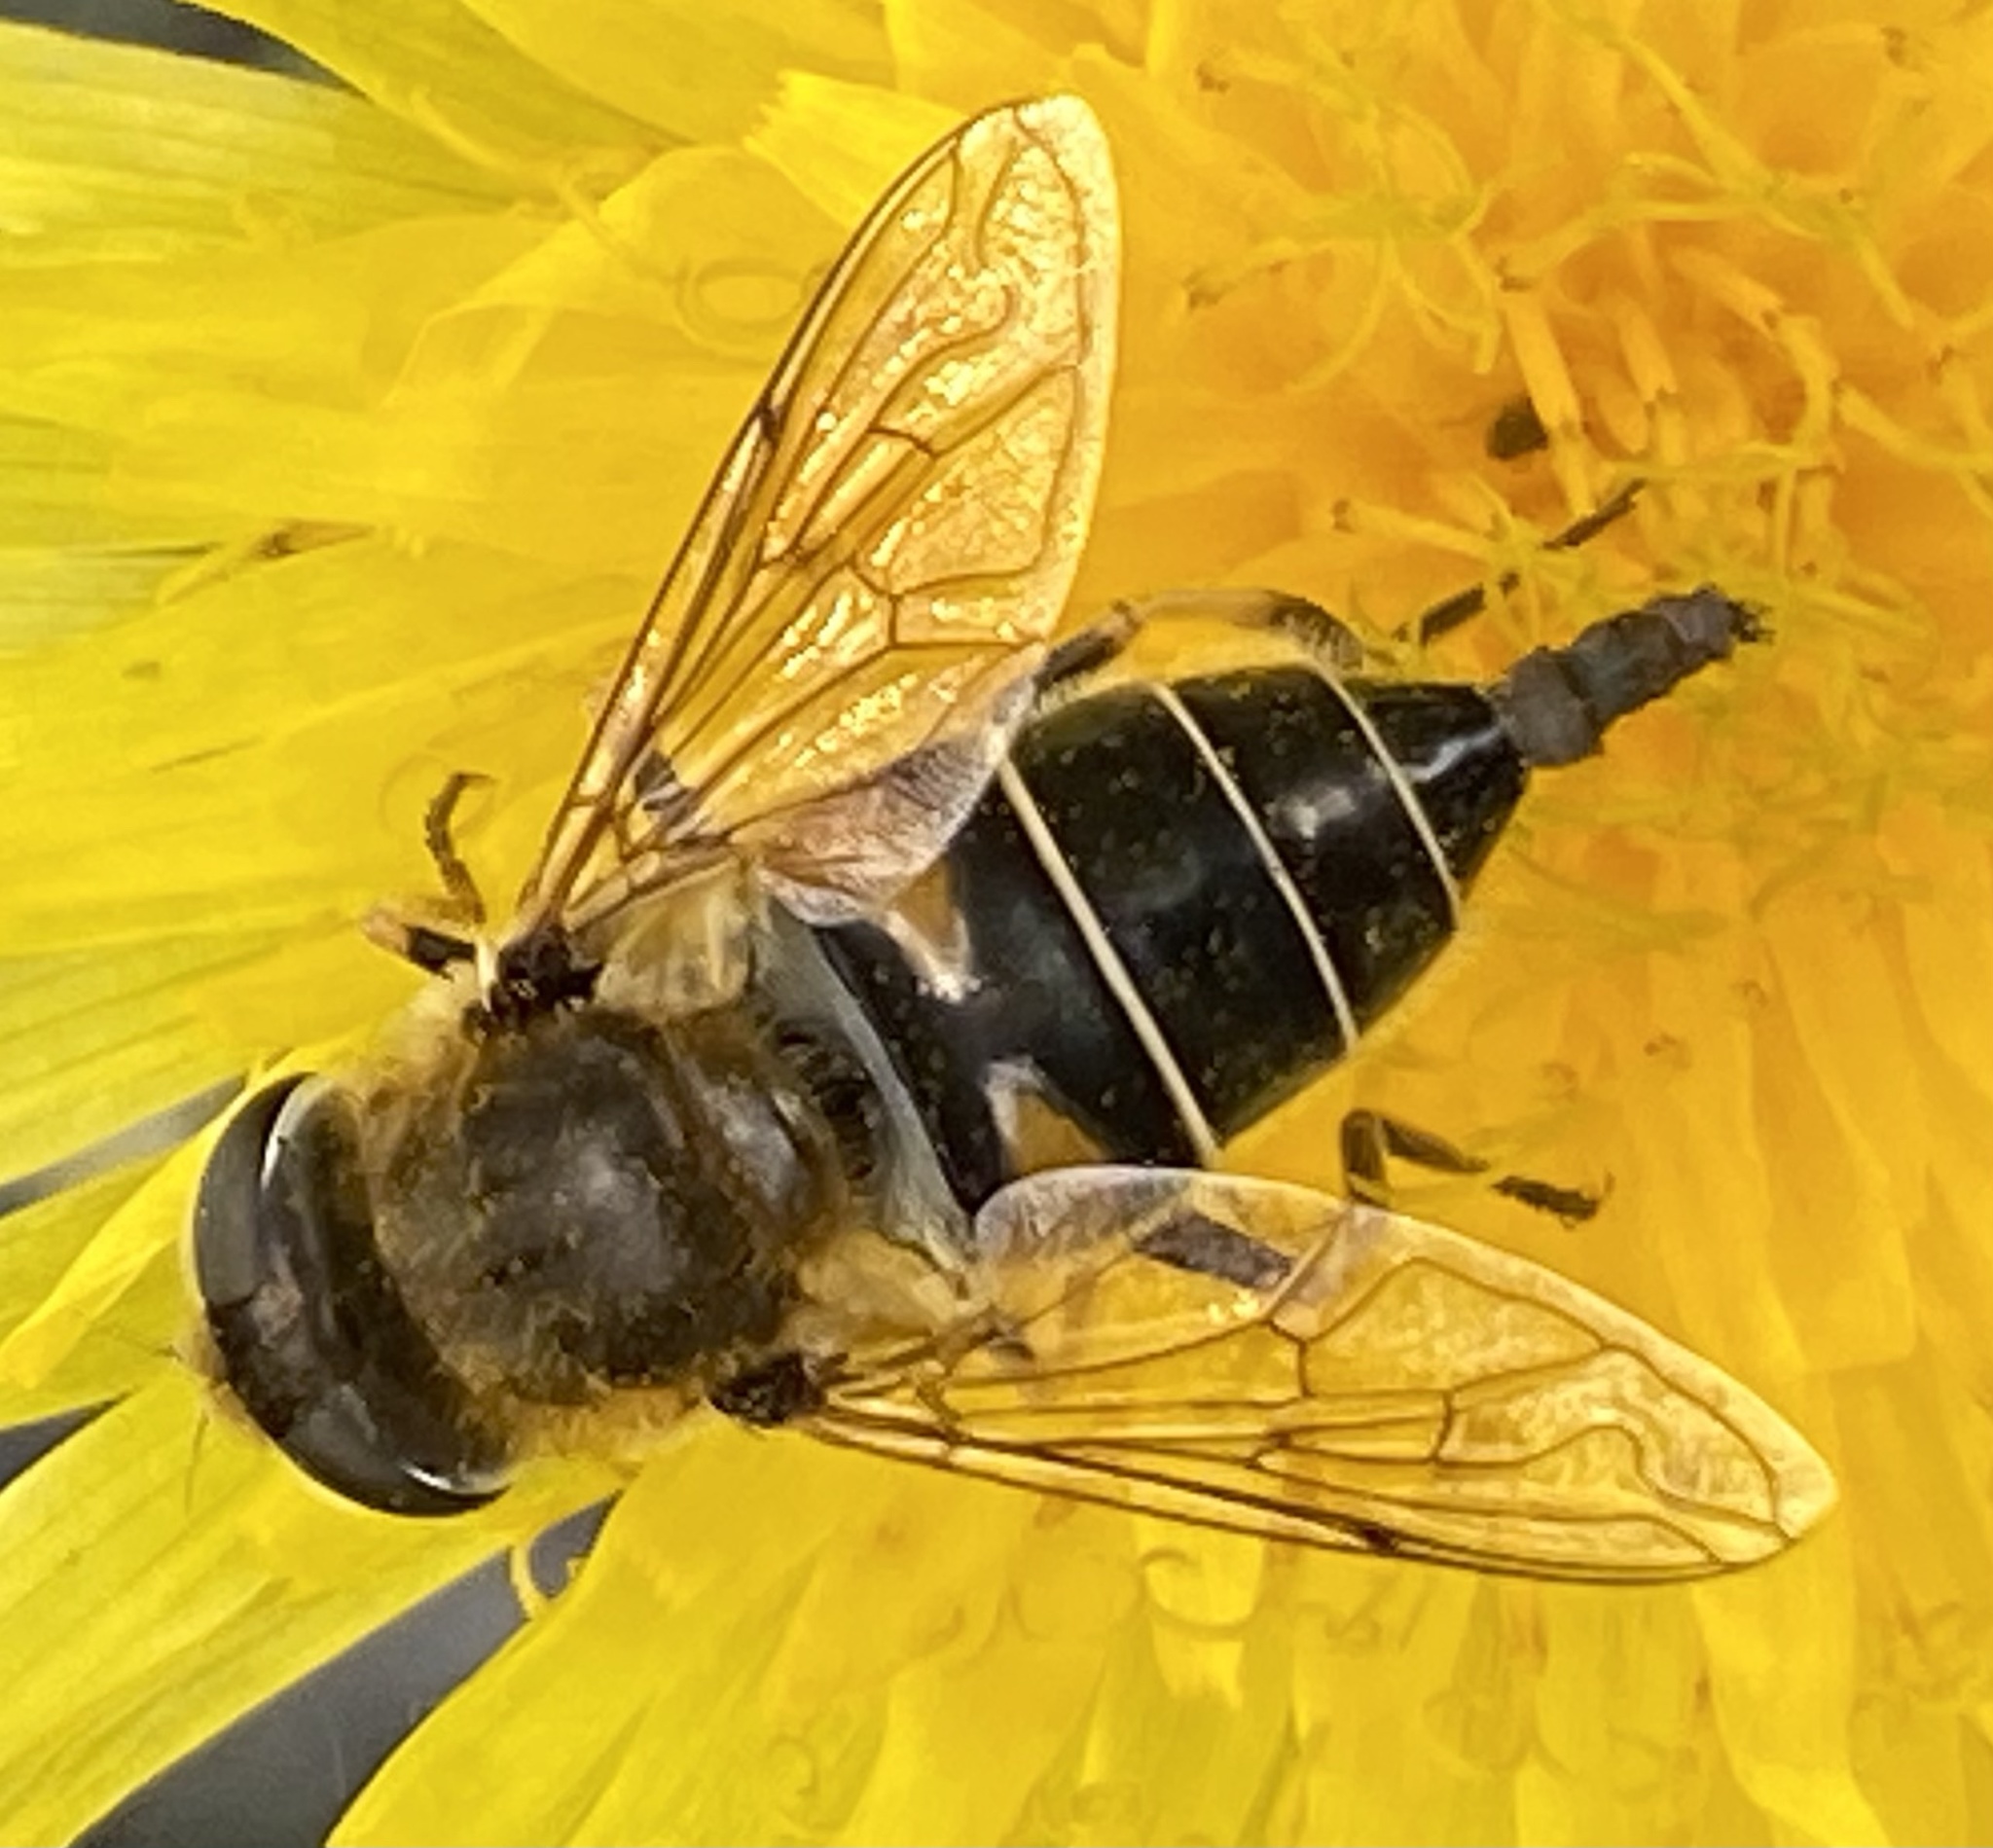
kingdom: Animalia
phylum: Arthropoda
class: Insecta
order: Diptera
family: Syrphidae
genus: Eristalis
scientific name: Eristalis nemorum
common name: Orange-spined drone fly
